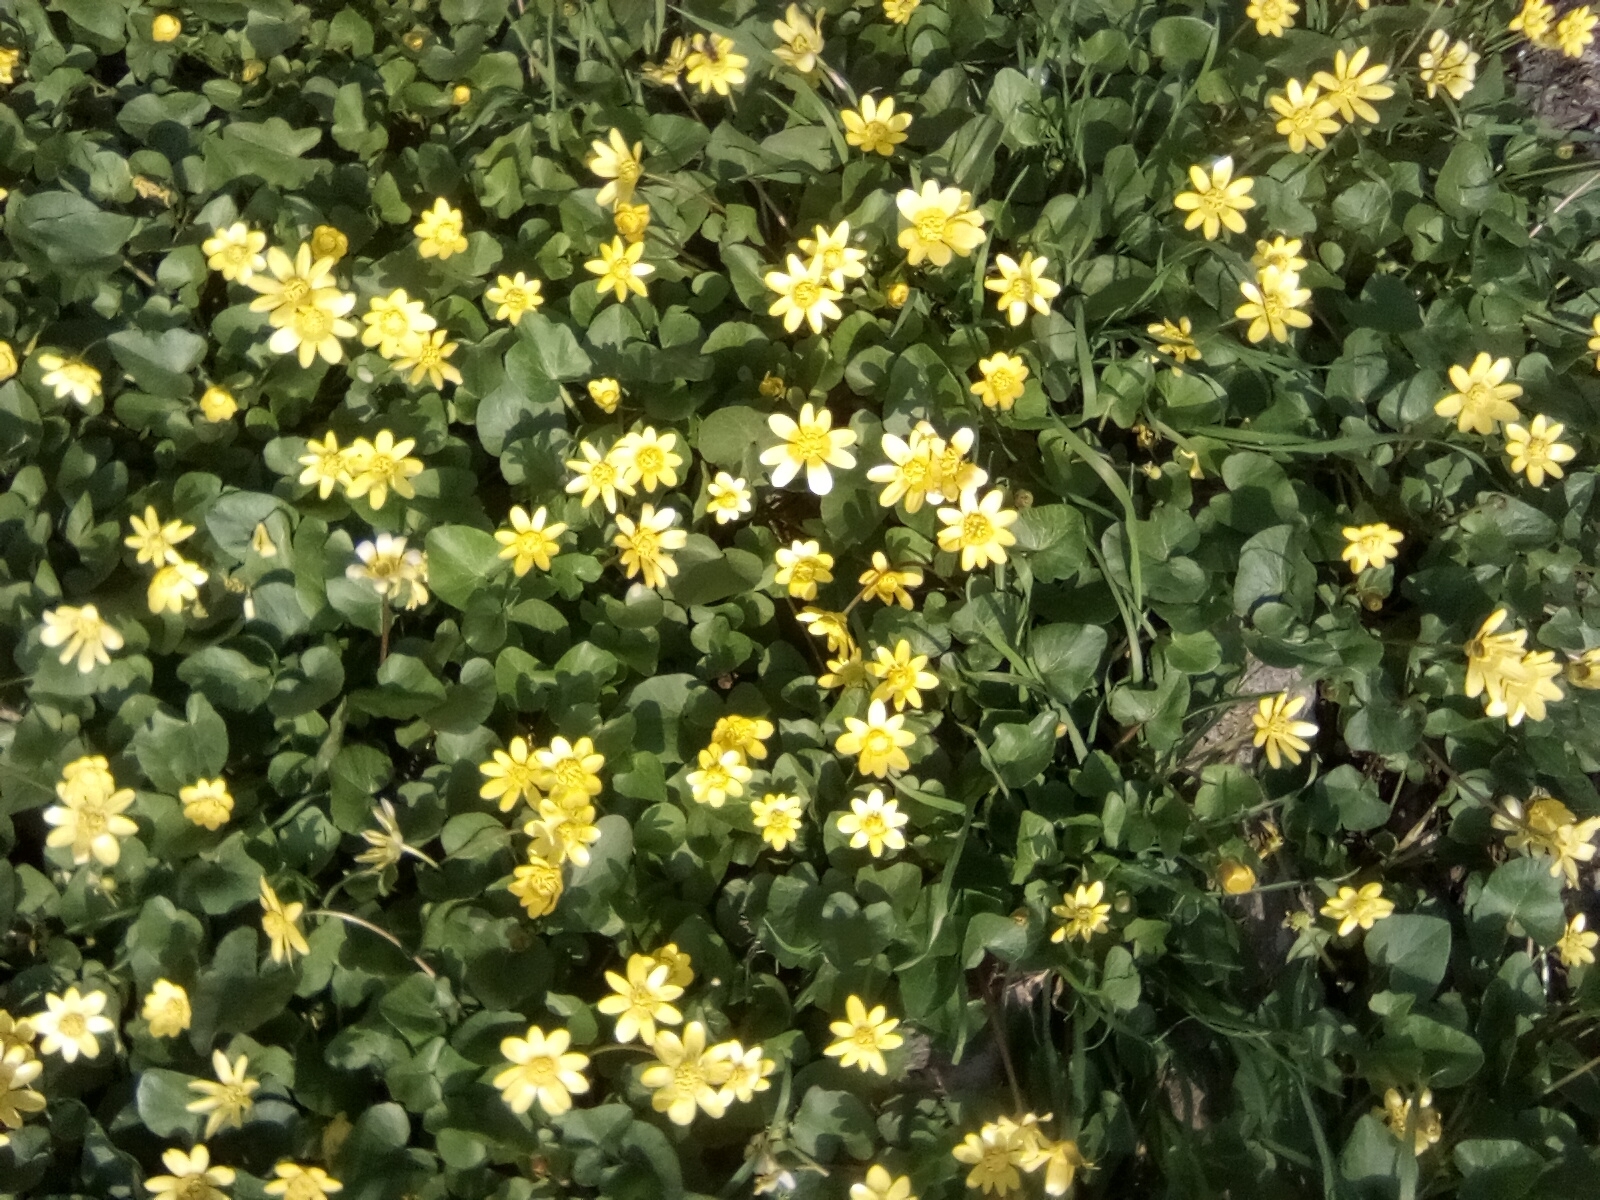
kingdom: Plantae
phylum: Tracheophyta
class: Magnoliopsida
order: Ranunculales
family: Ranunculaceae
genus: Ficaria
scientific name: Ficaria verna
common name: Lesser celandine
